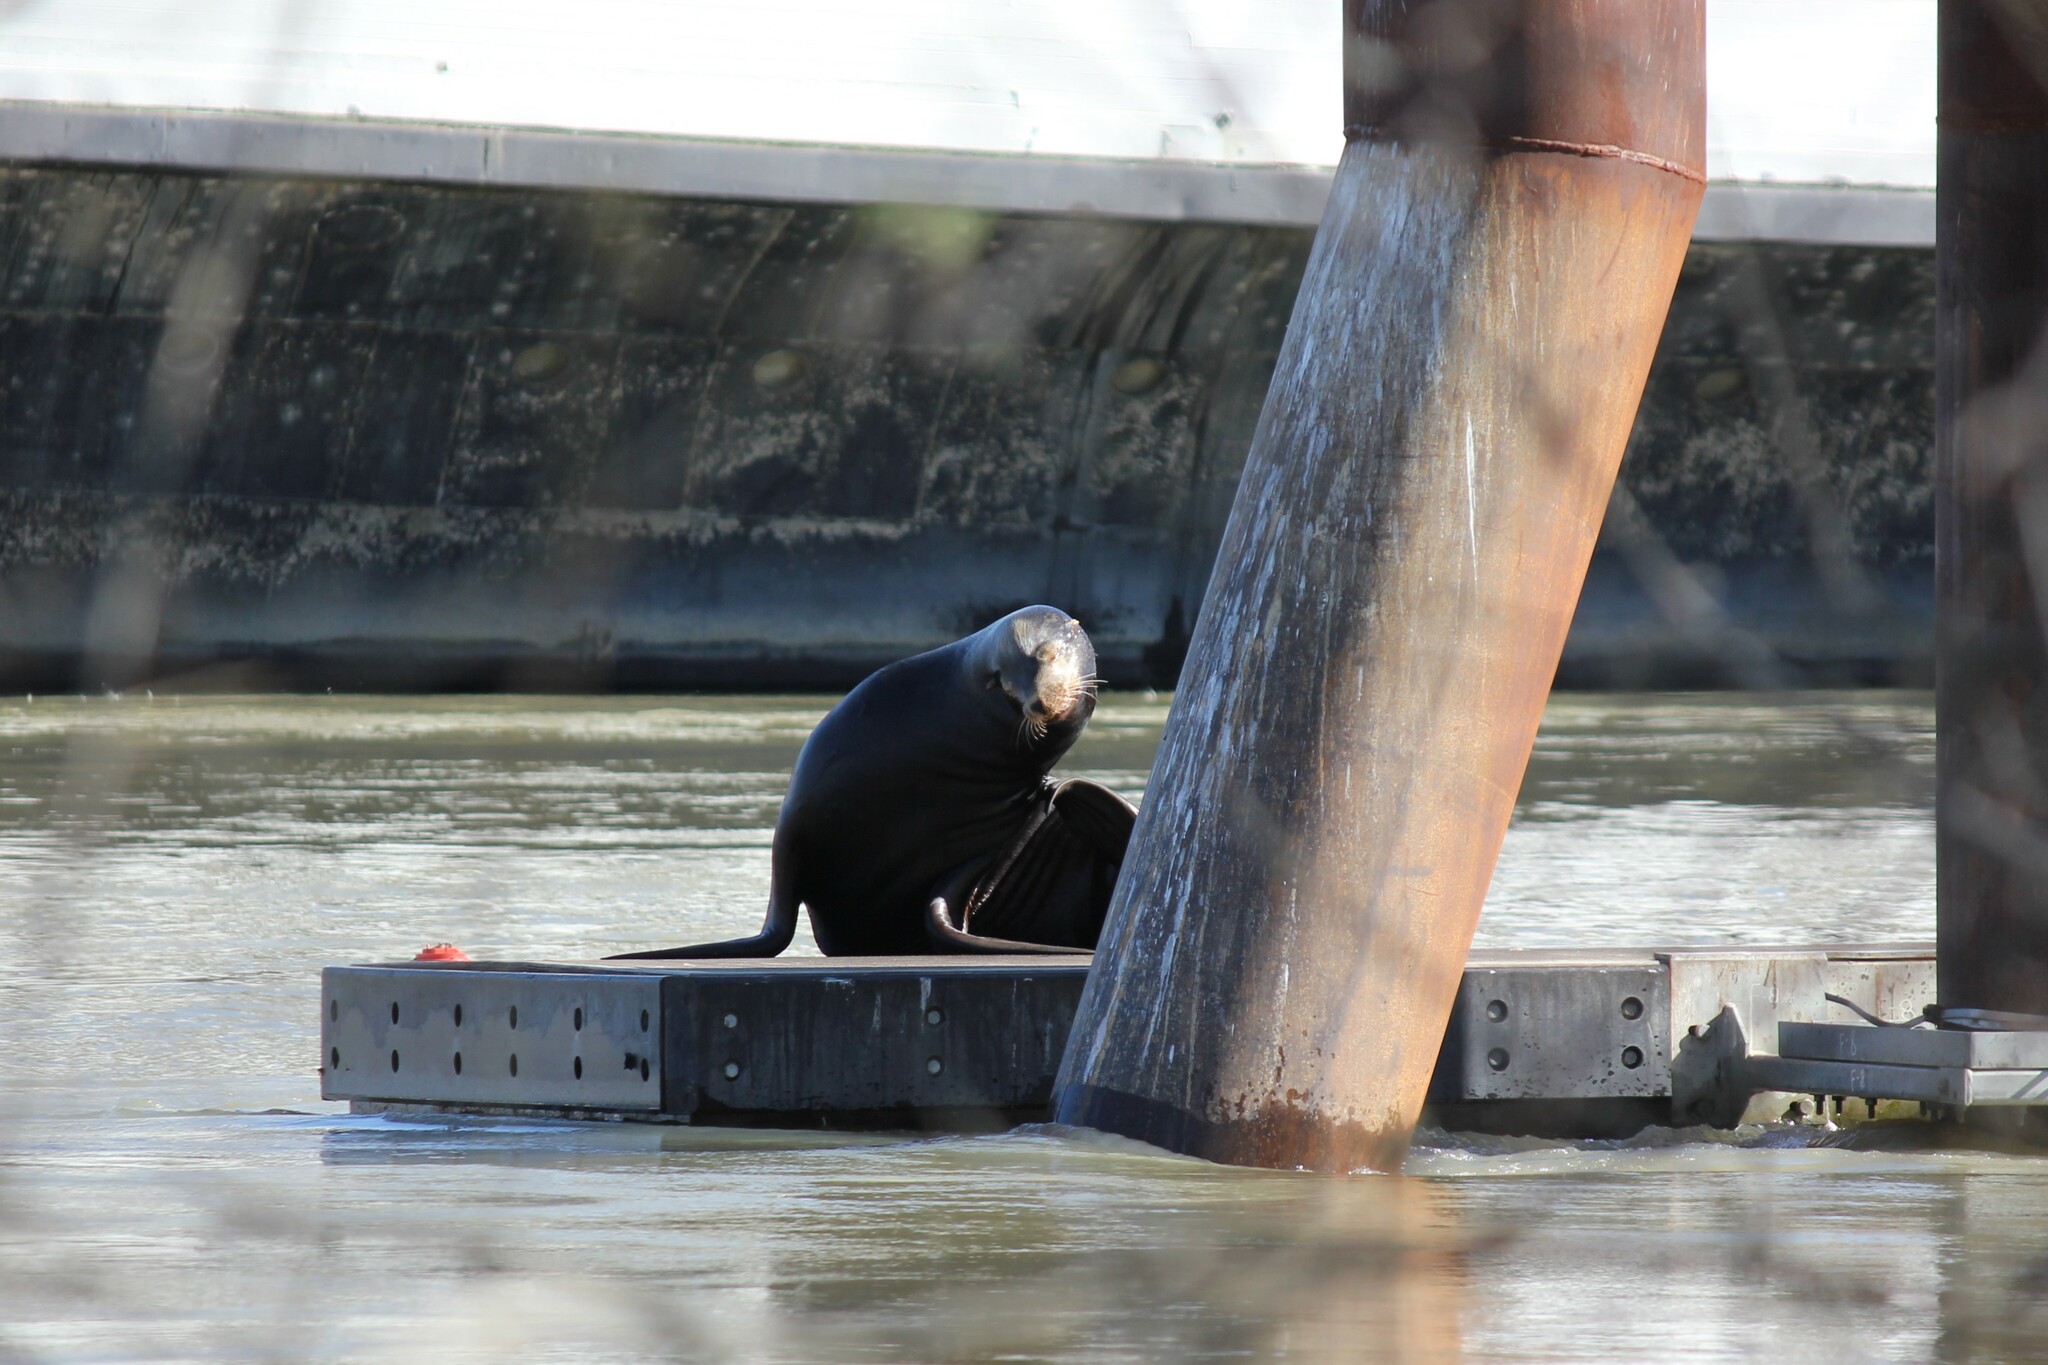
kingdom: Animalia
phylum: Chordata
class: Mammalia
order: Carnivora
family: Otariidae
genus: Zalophus
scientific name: Zalophus californianus
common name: California sea lion
